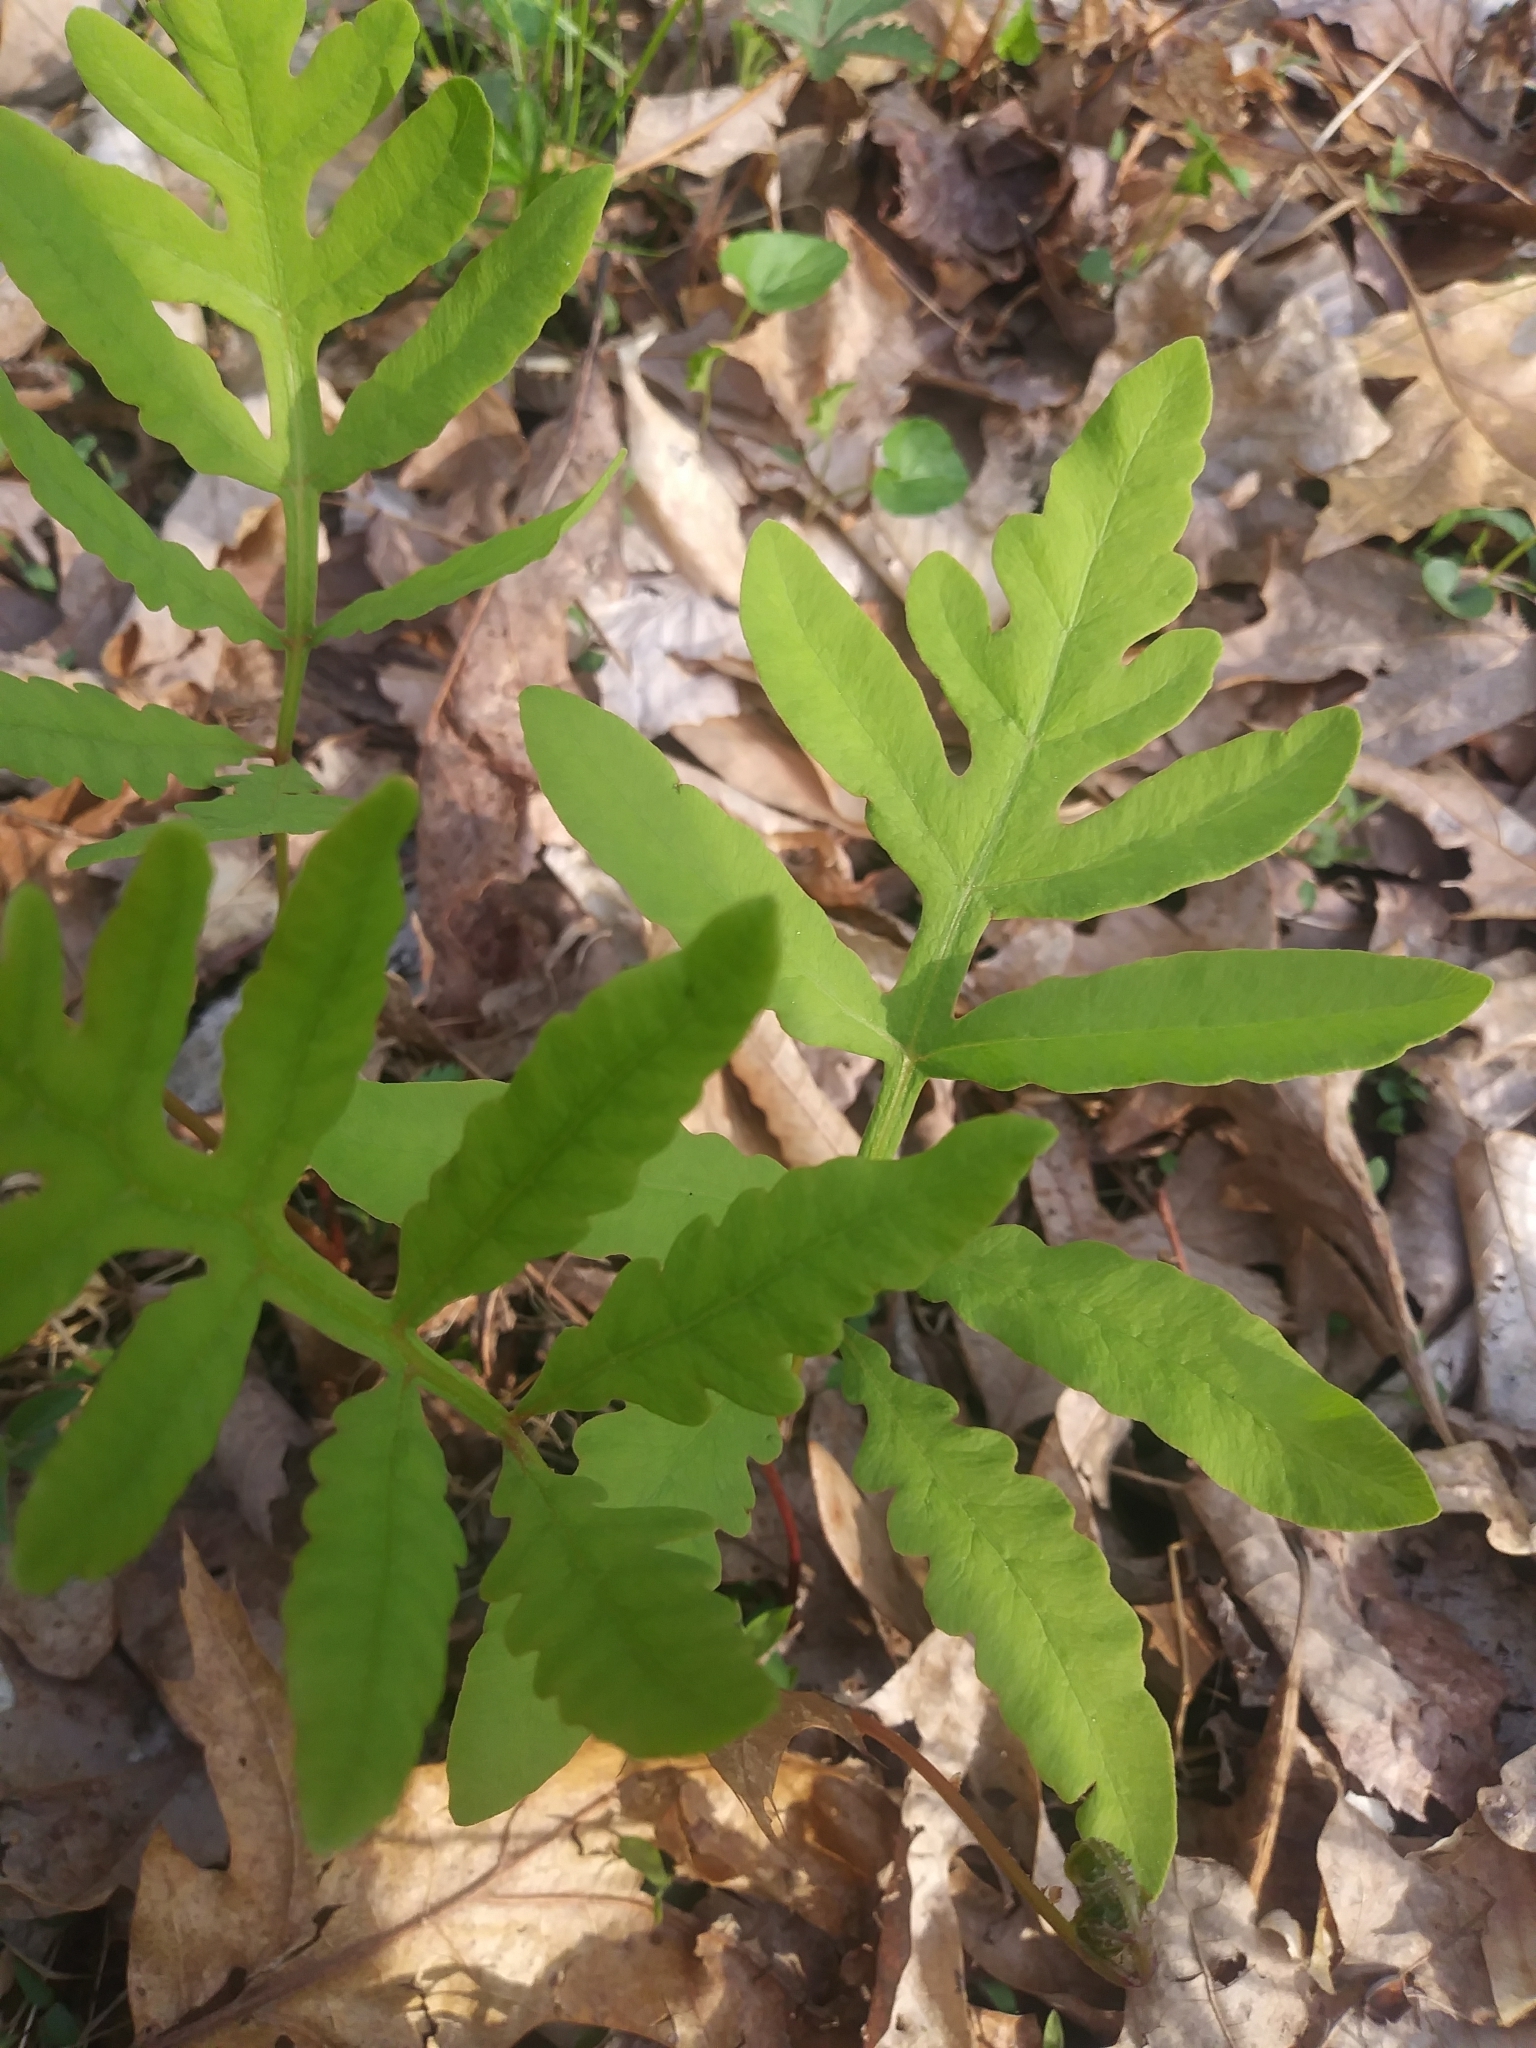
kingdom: Plantae
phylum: Tracheophyta
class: Polypodiopsida
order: Polypodiales
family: Onocleaceae
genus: Onoclea
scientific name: Onoclea sensibilis
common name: Sensitive fern
